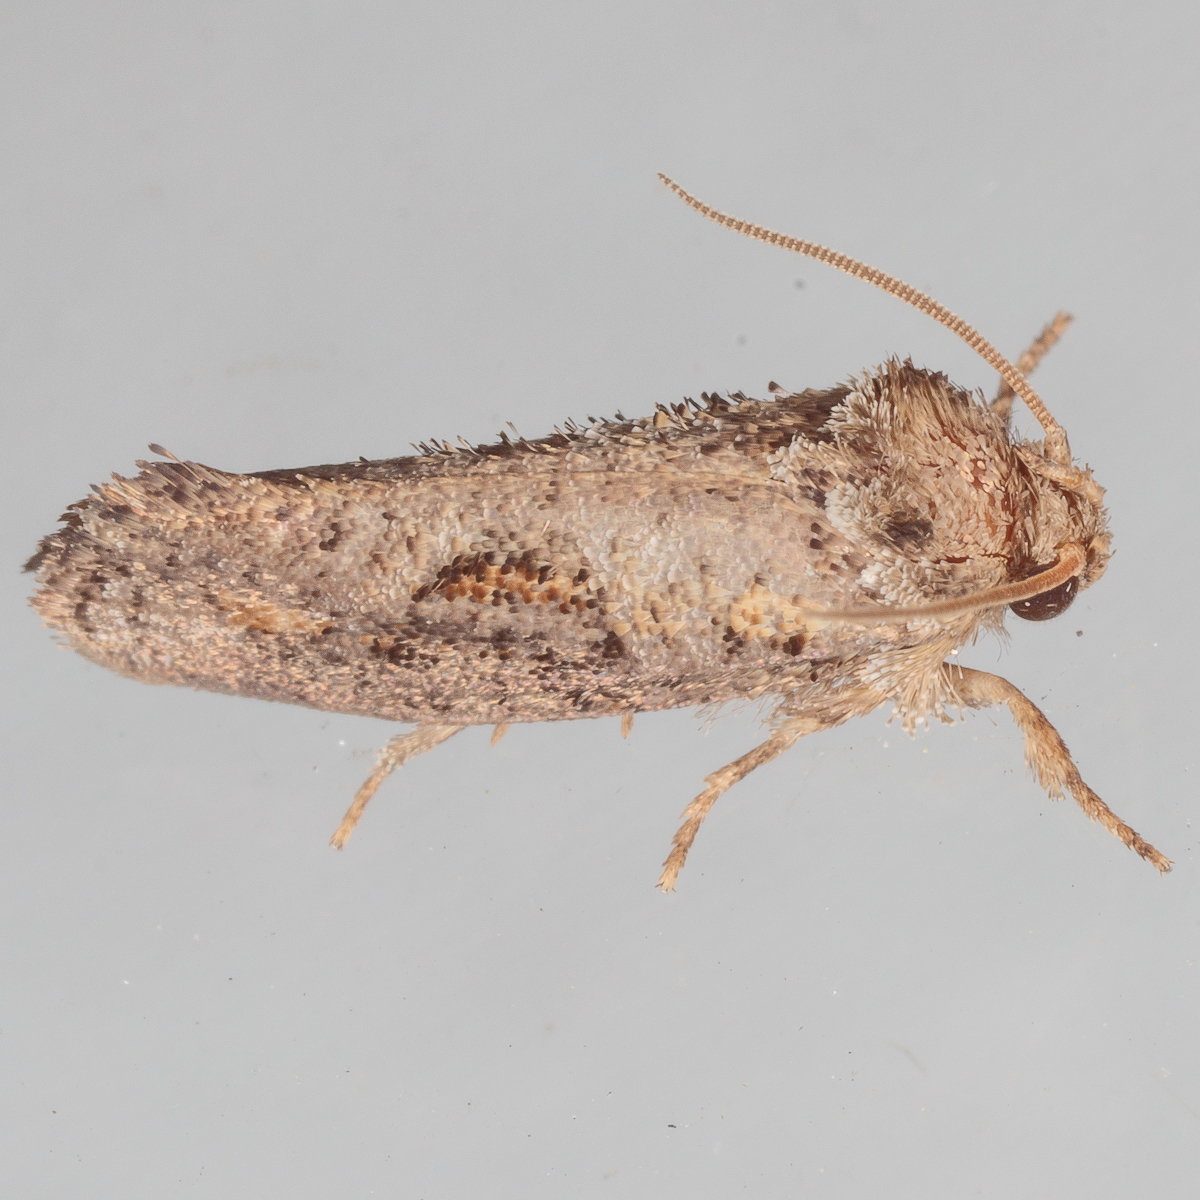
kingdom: Animalia
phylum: Arthropoda
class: Insecta
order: Lepidoptera
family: Tineidae
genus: Acrolophus
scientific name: Acrolophus piger
